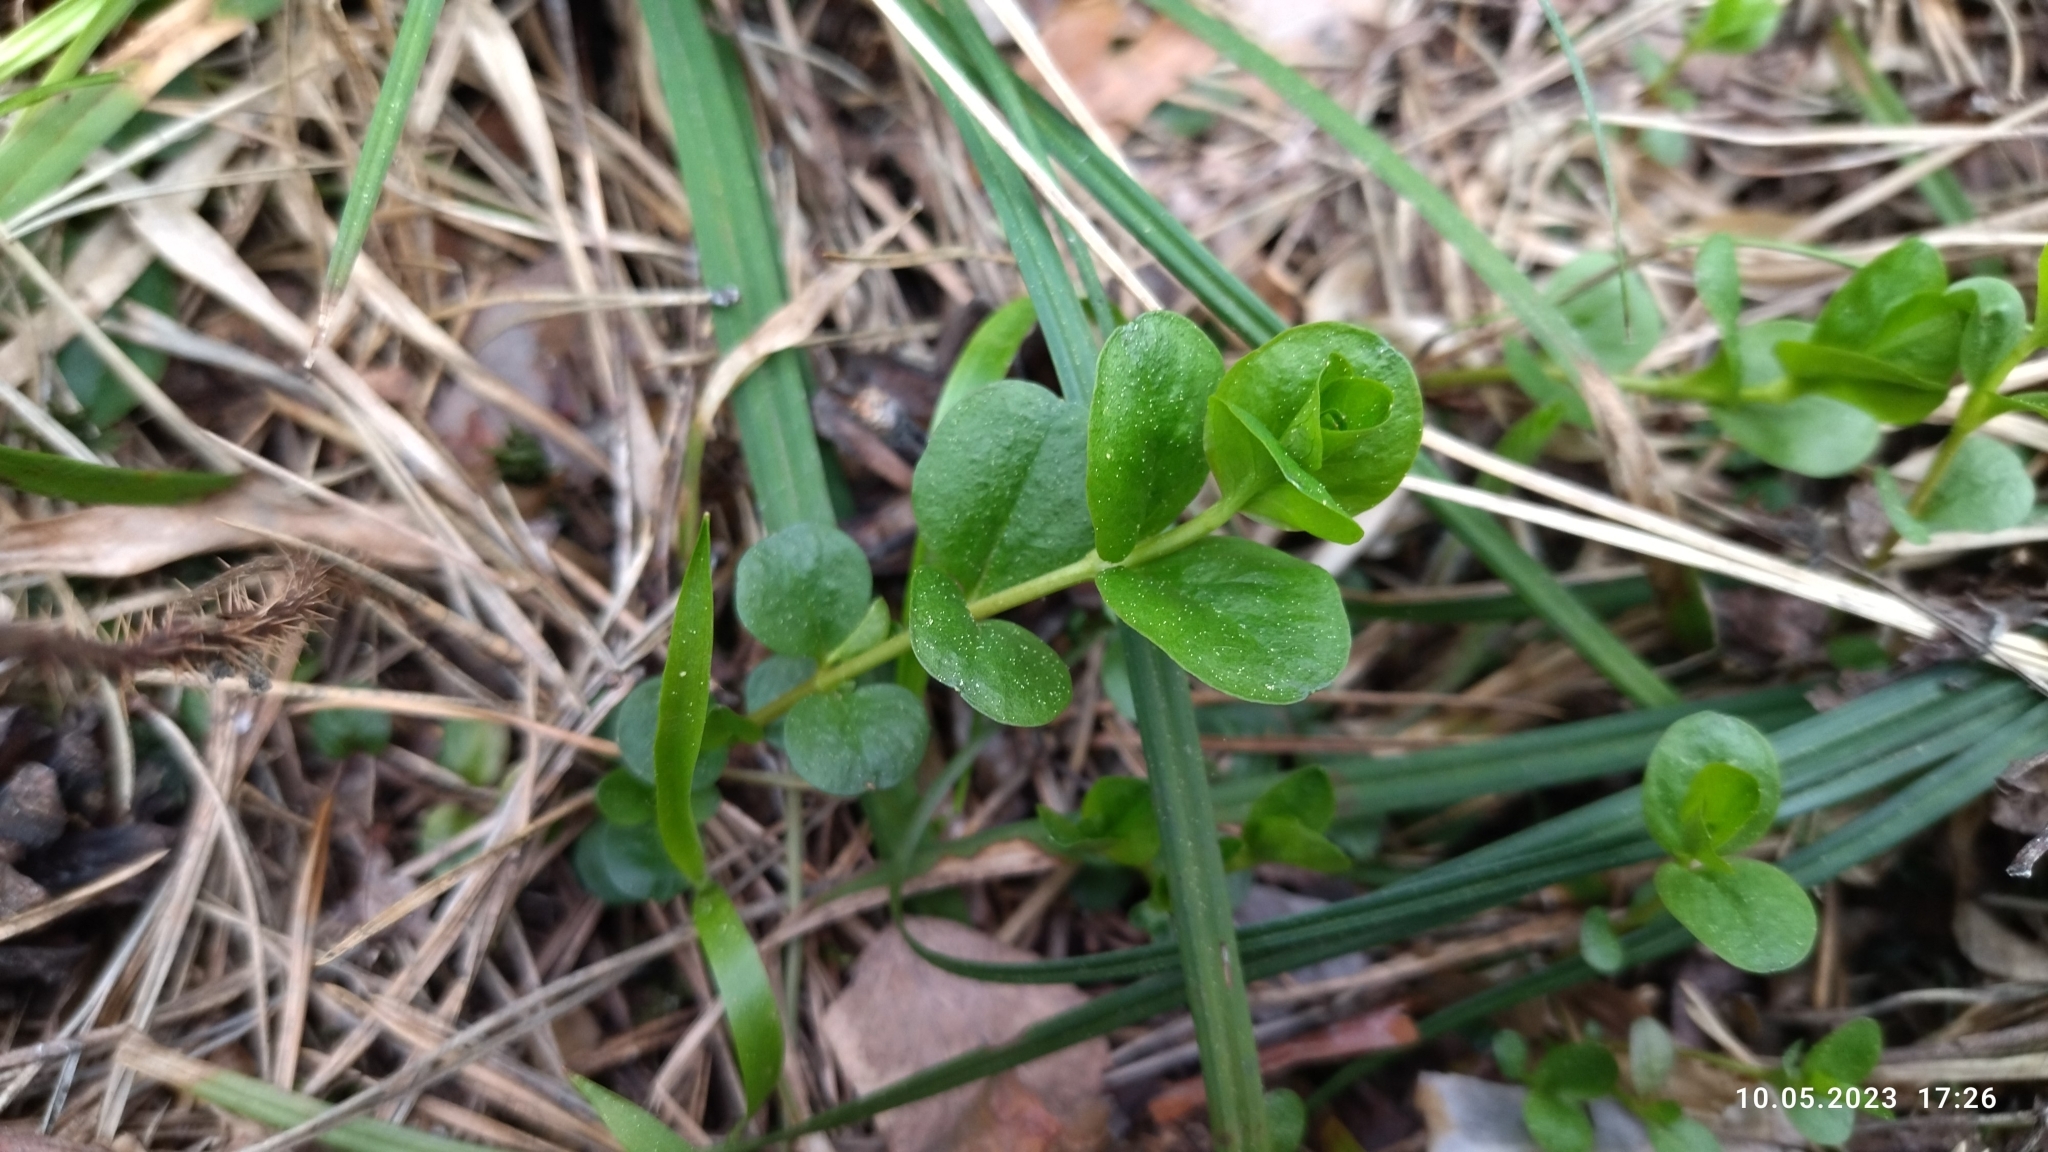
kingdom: Plantae
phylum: Tracheophyta
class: Magnoliopsida
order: Ericales
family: Primulaceae
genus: Lysimachia
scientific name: Lysimachia nummularia
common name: Moneywort
